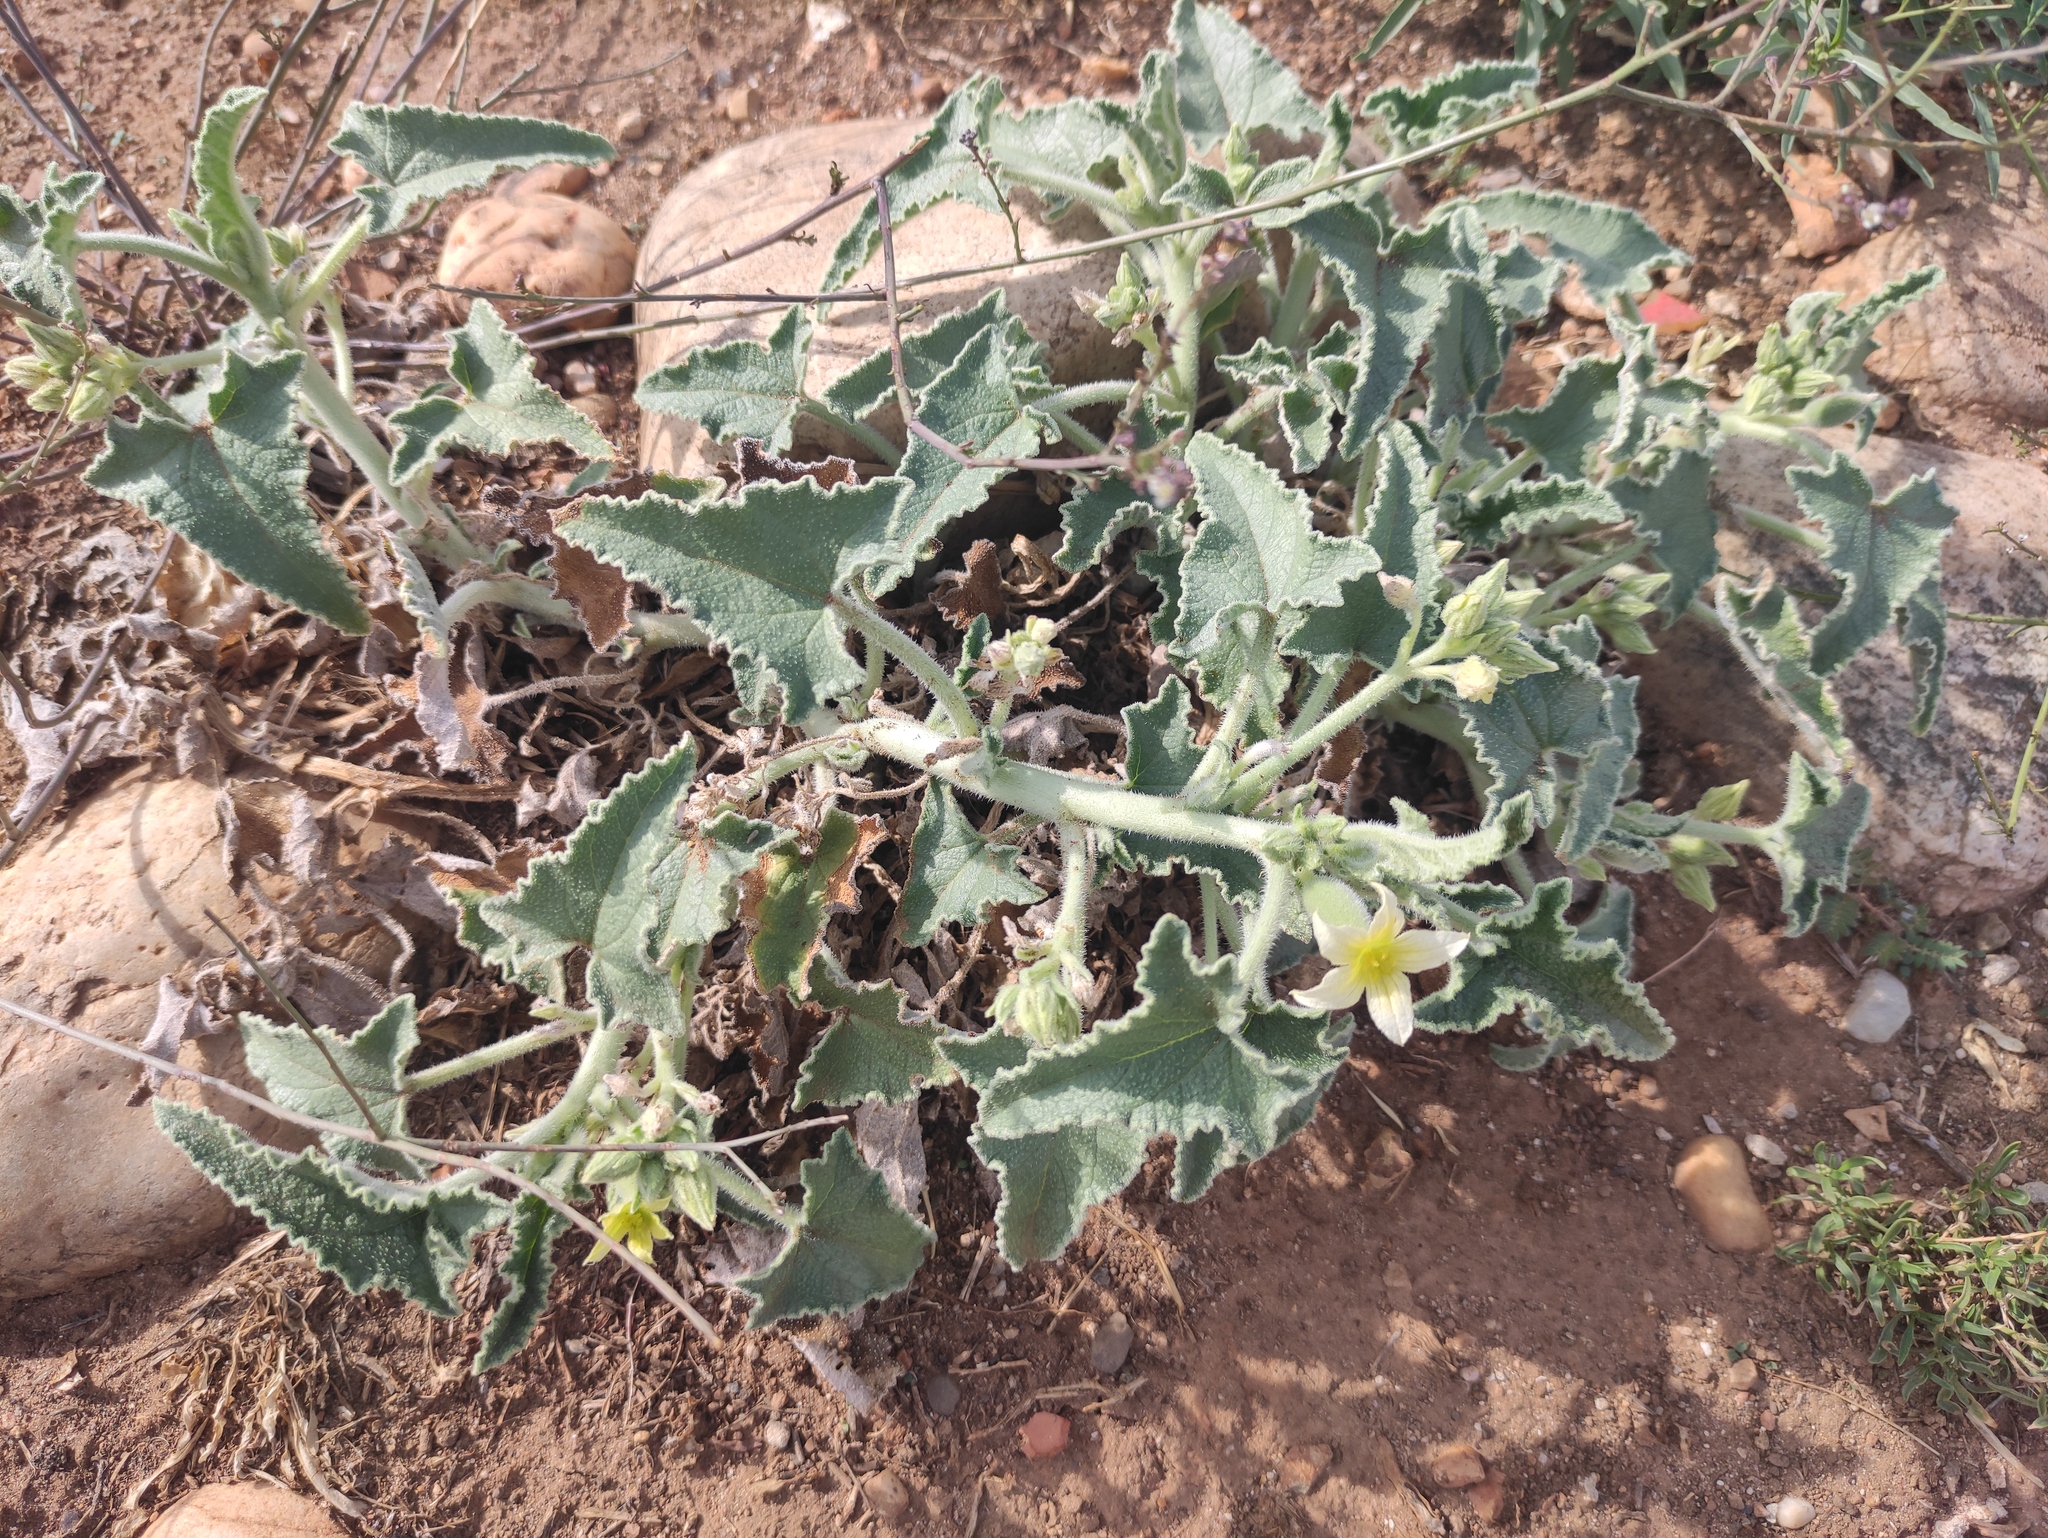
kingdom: Plantae
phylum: Tracheophyta
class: Magnoliopsida
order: Cucurbitales
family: Cucurbitaceae
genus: Ecballium
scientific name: Ecballium elaterium
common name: Squirting cucumber
